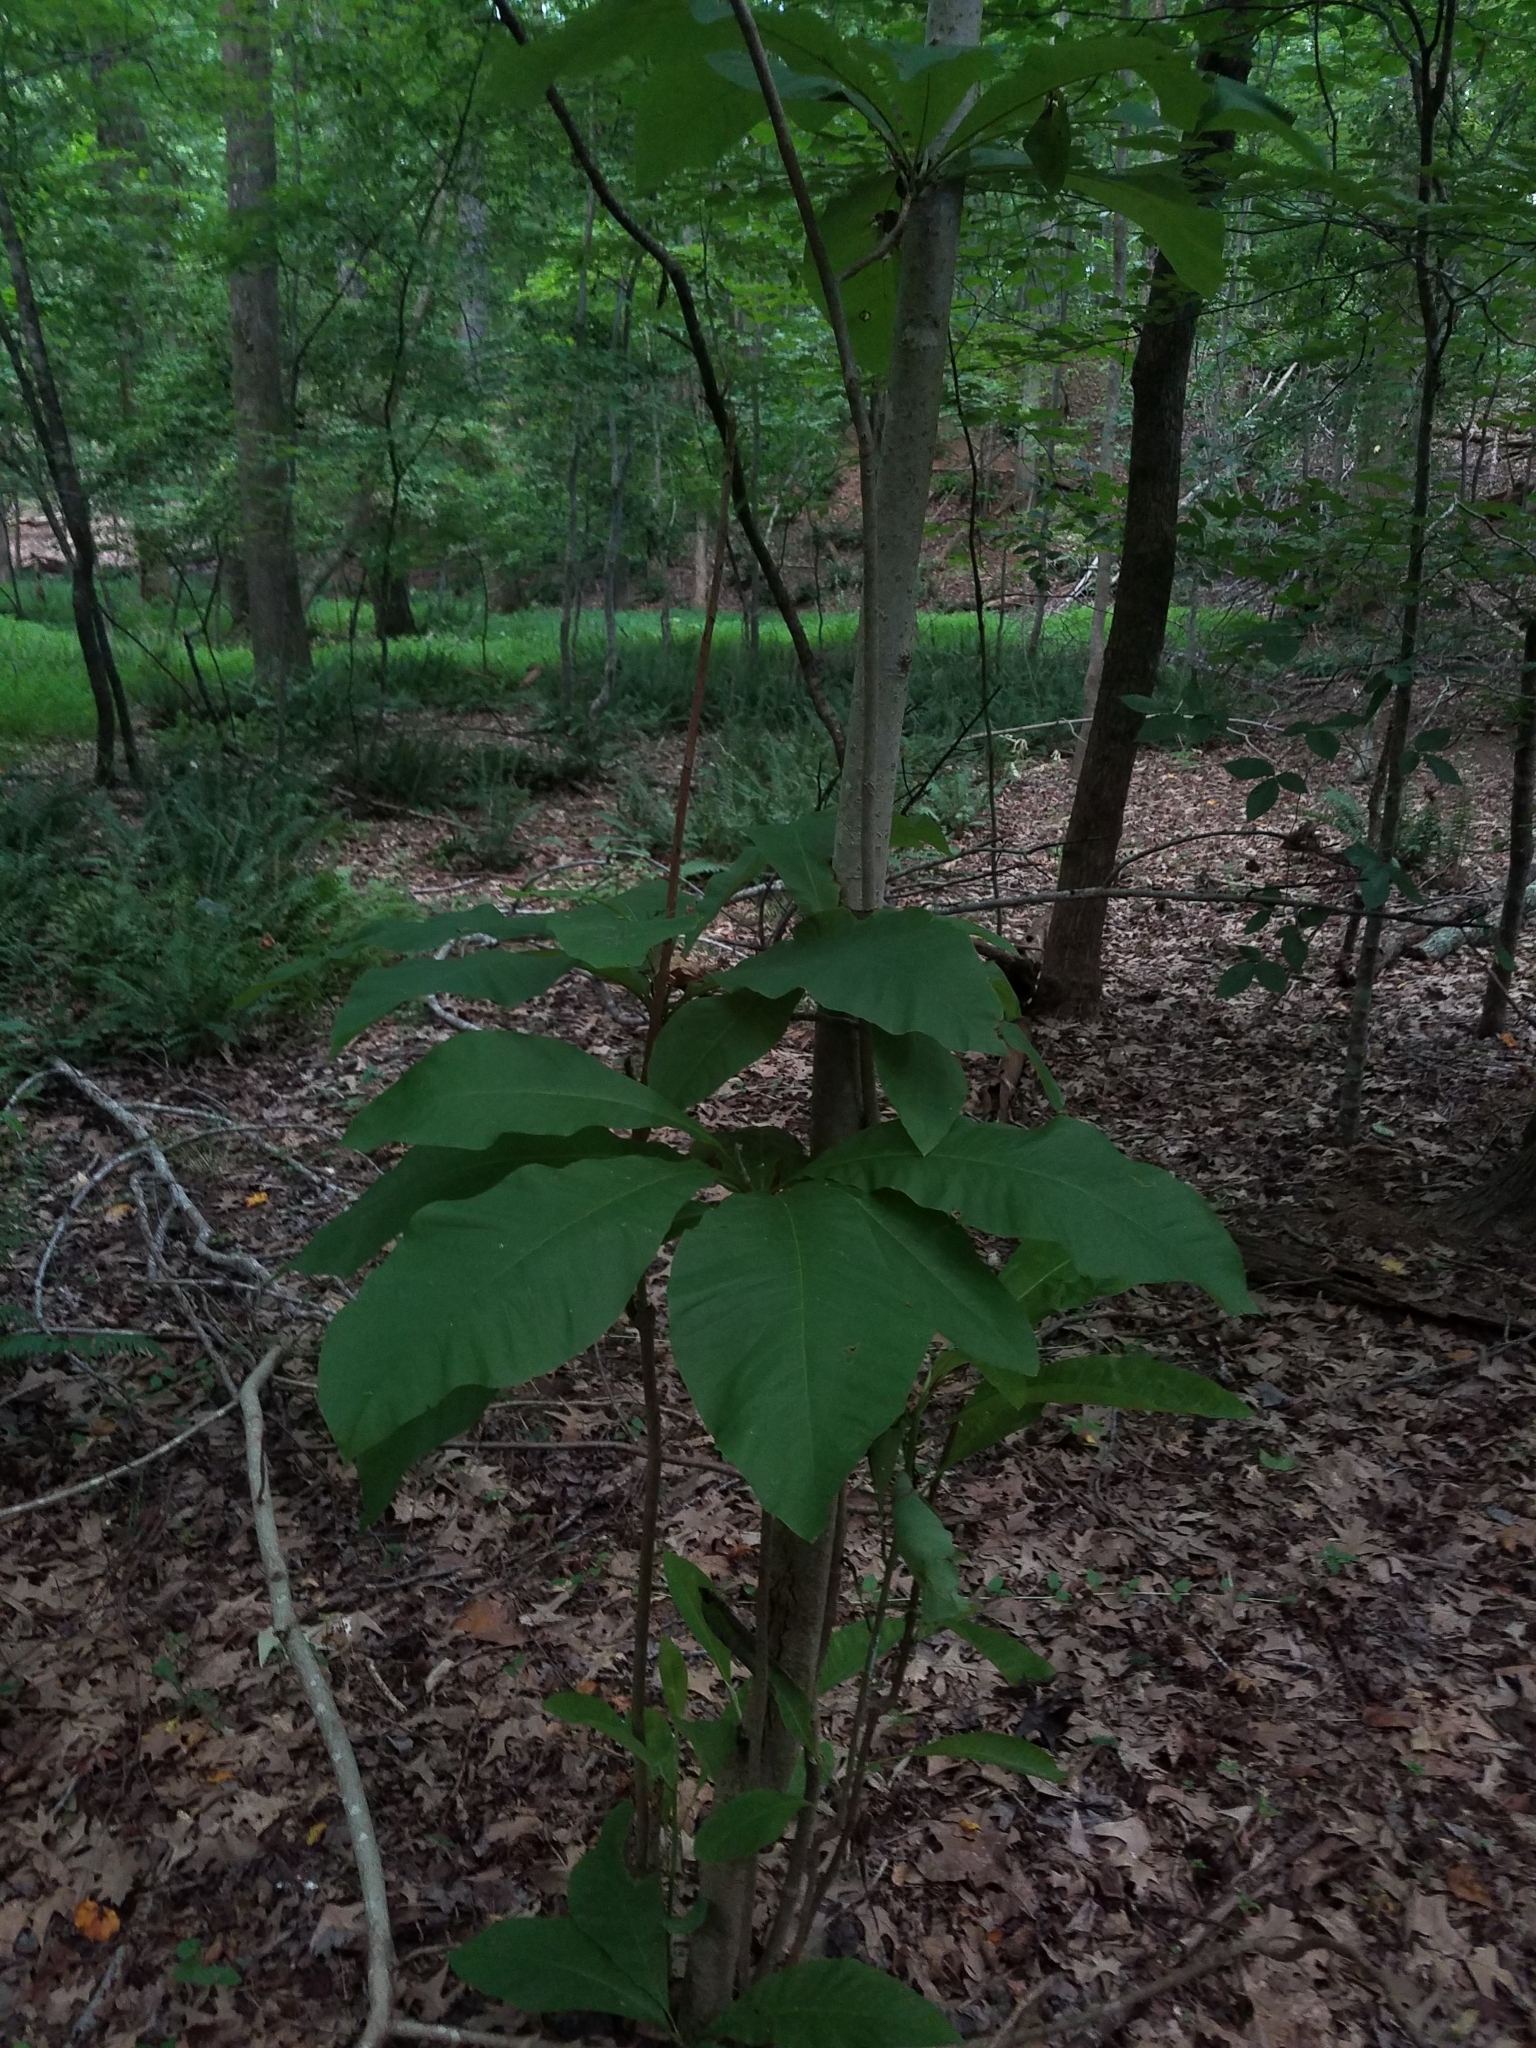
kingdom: Plantae
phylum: Tracheophyta
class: Magnoliopsida
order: Magnoliales
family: Magnoliaceae
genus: Magnolia
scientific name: Magnolia tripetala
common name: Umbrella magnolia
